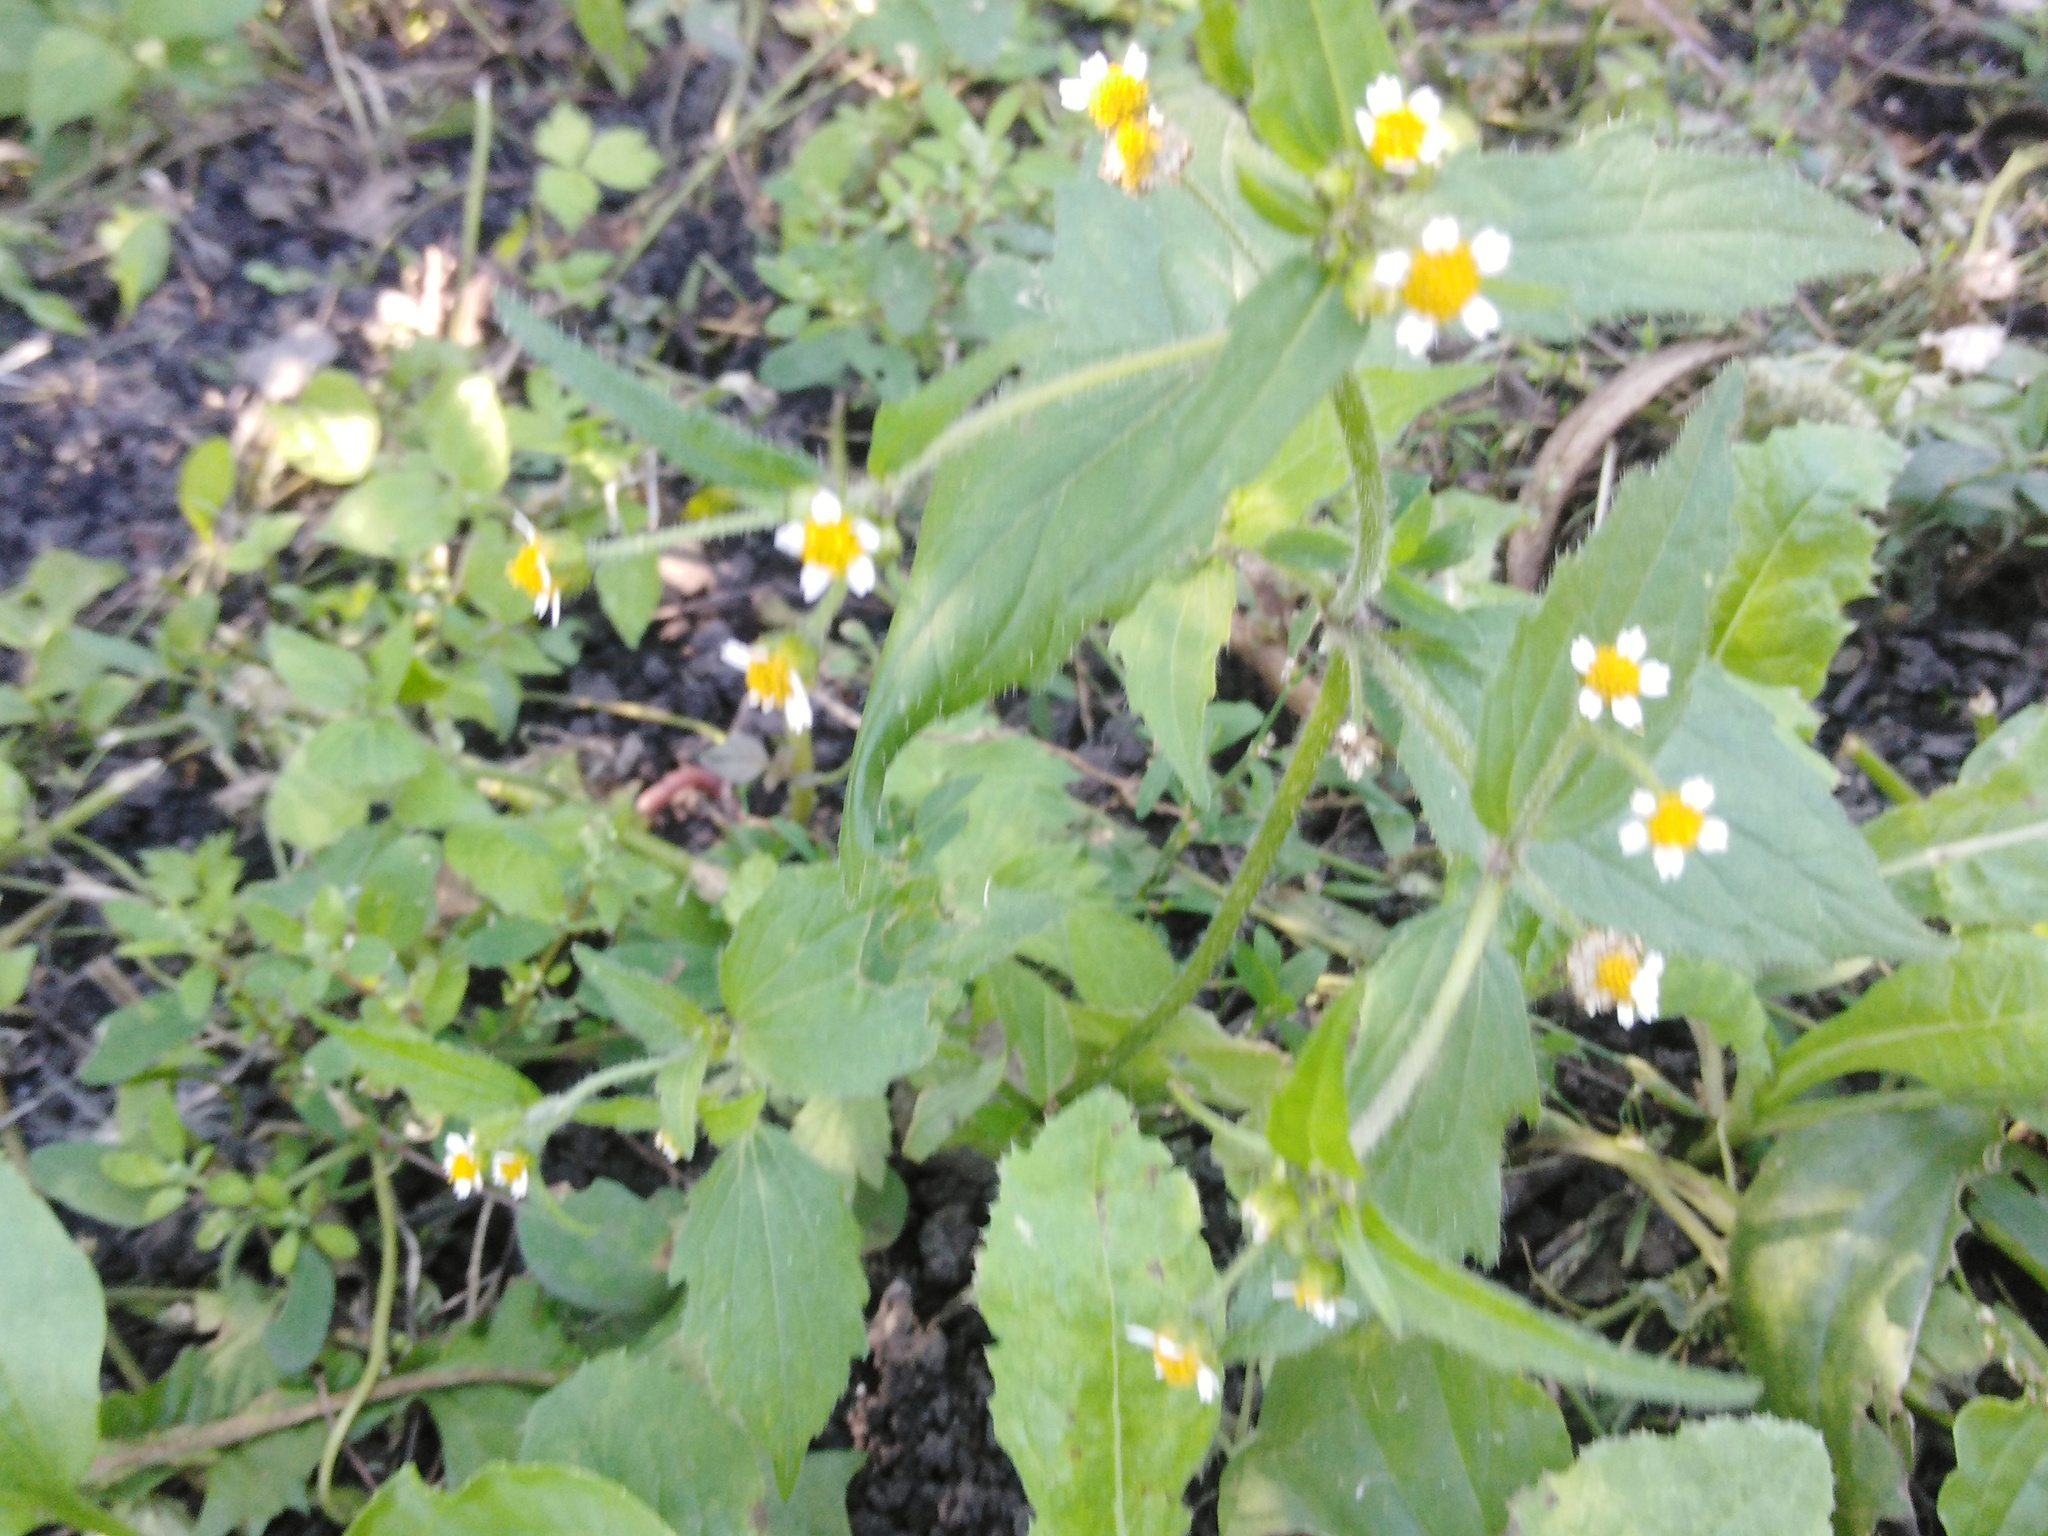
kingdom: Plantae
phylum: Tracheophyta
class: Magnoliopsida
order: Asterales
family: Asteraceae
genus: Galinsoga
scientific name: Galinsoga quadriradiata
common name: Shaggy soldier
